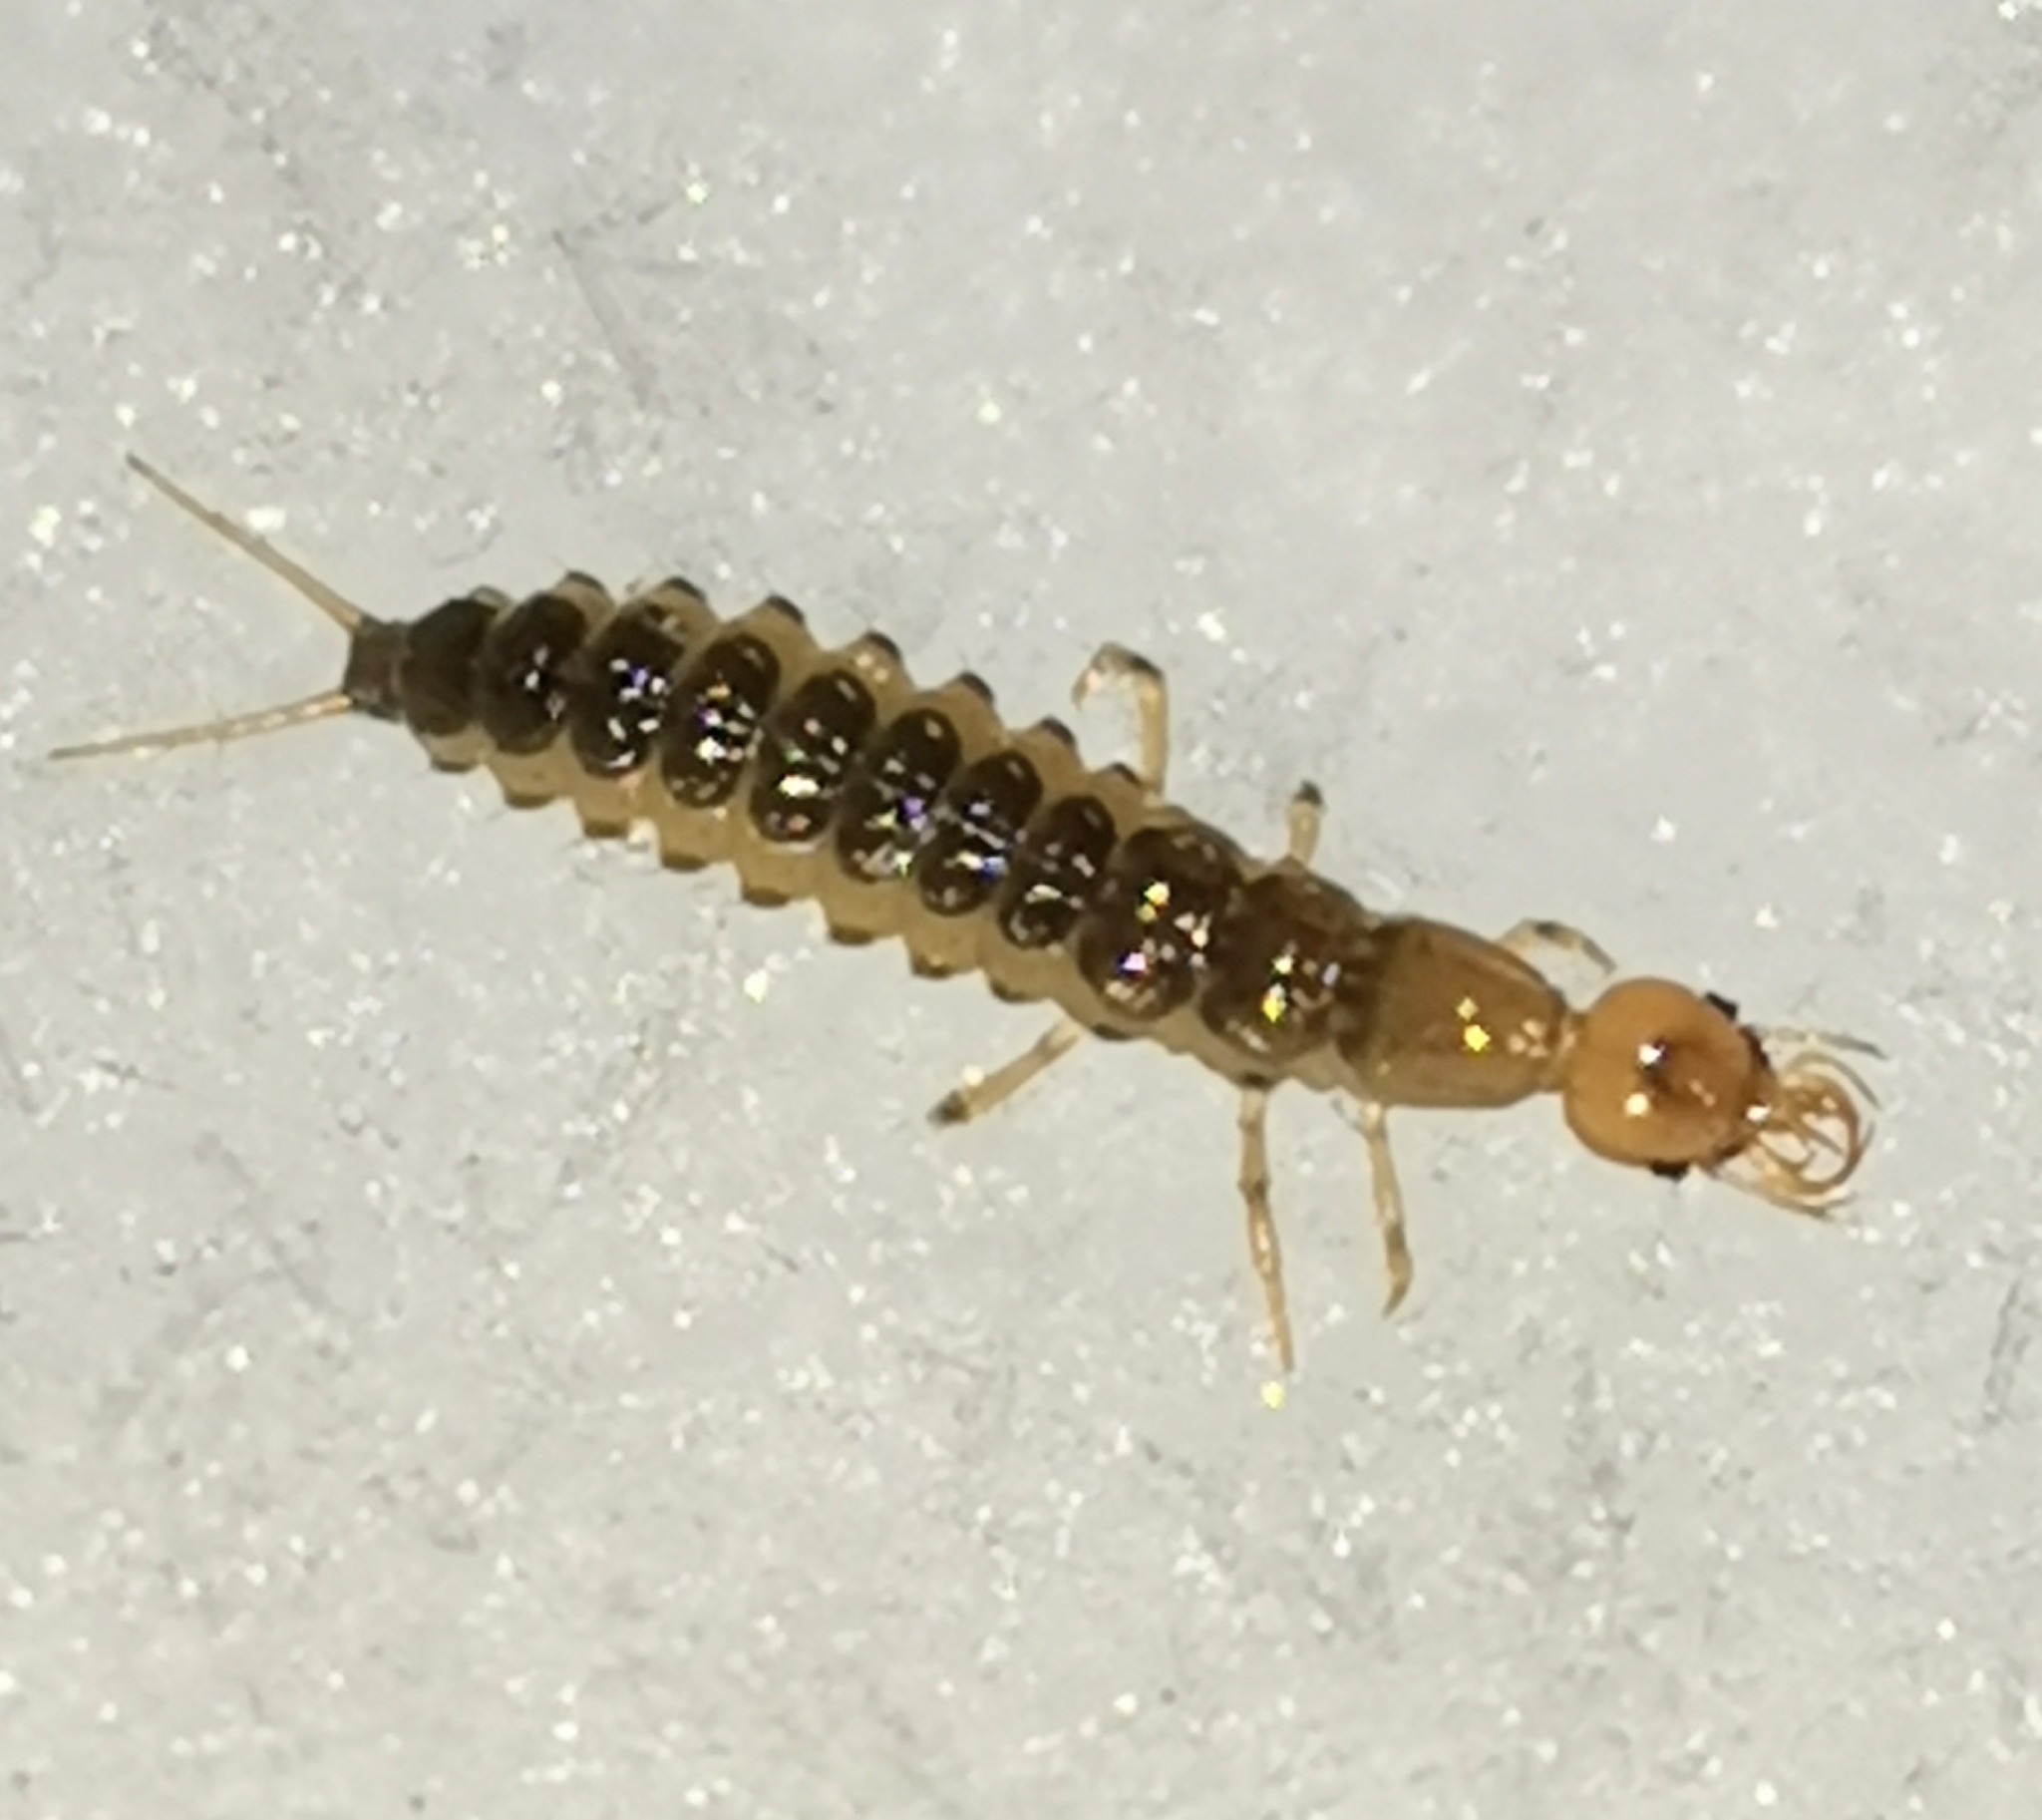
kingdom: Animalia
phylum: Arthropoda
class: Insecta
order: Coleoptera
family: Carabidae
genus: Leistus
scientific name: Leistus
